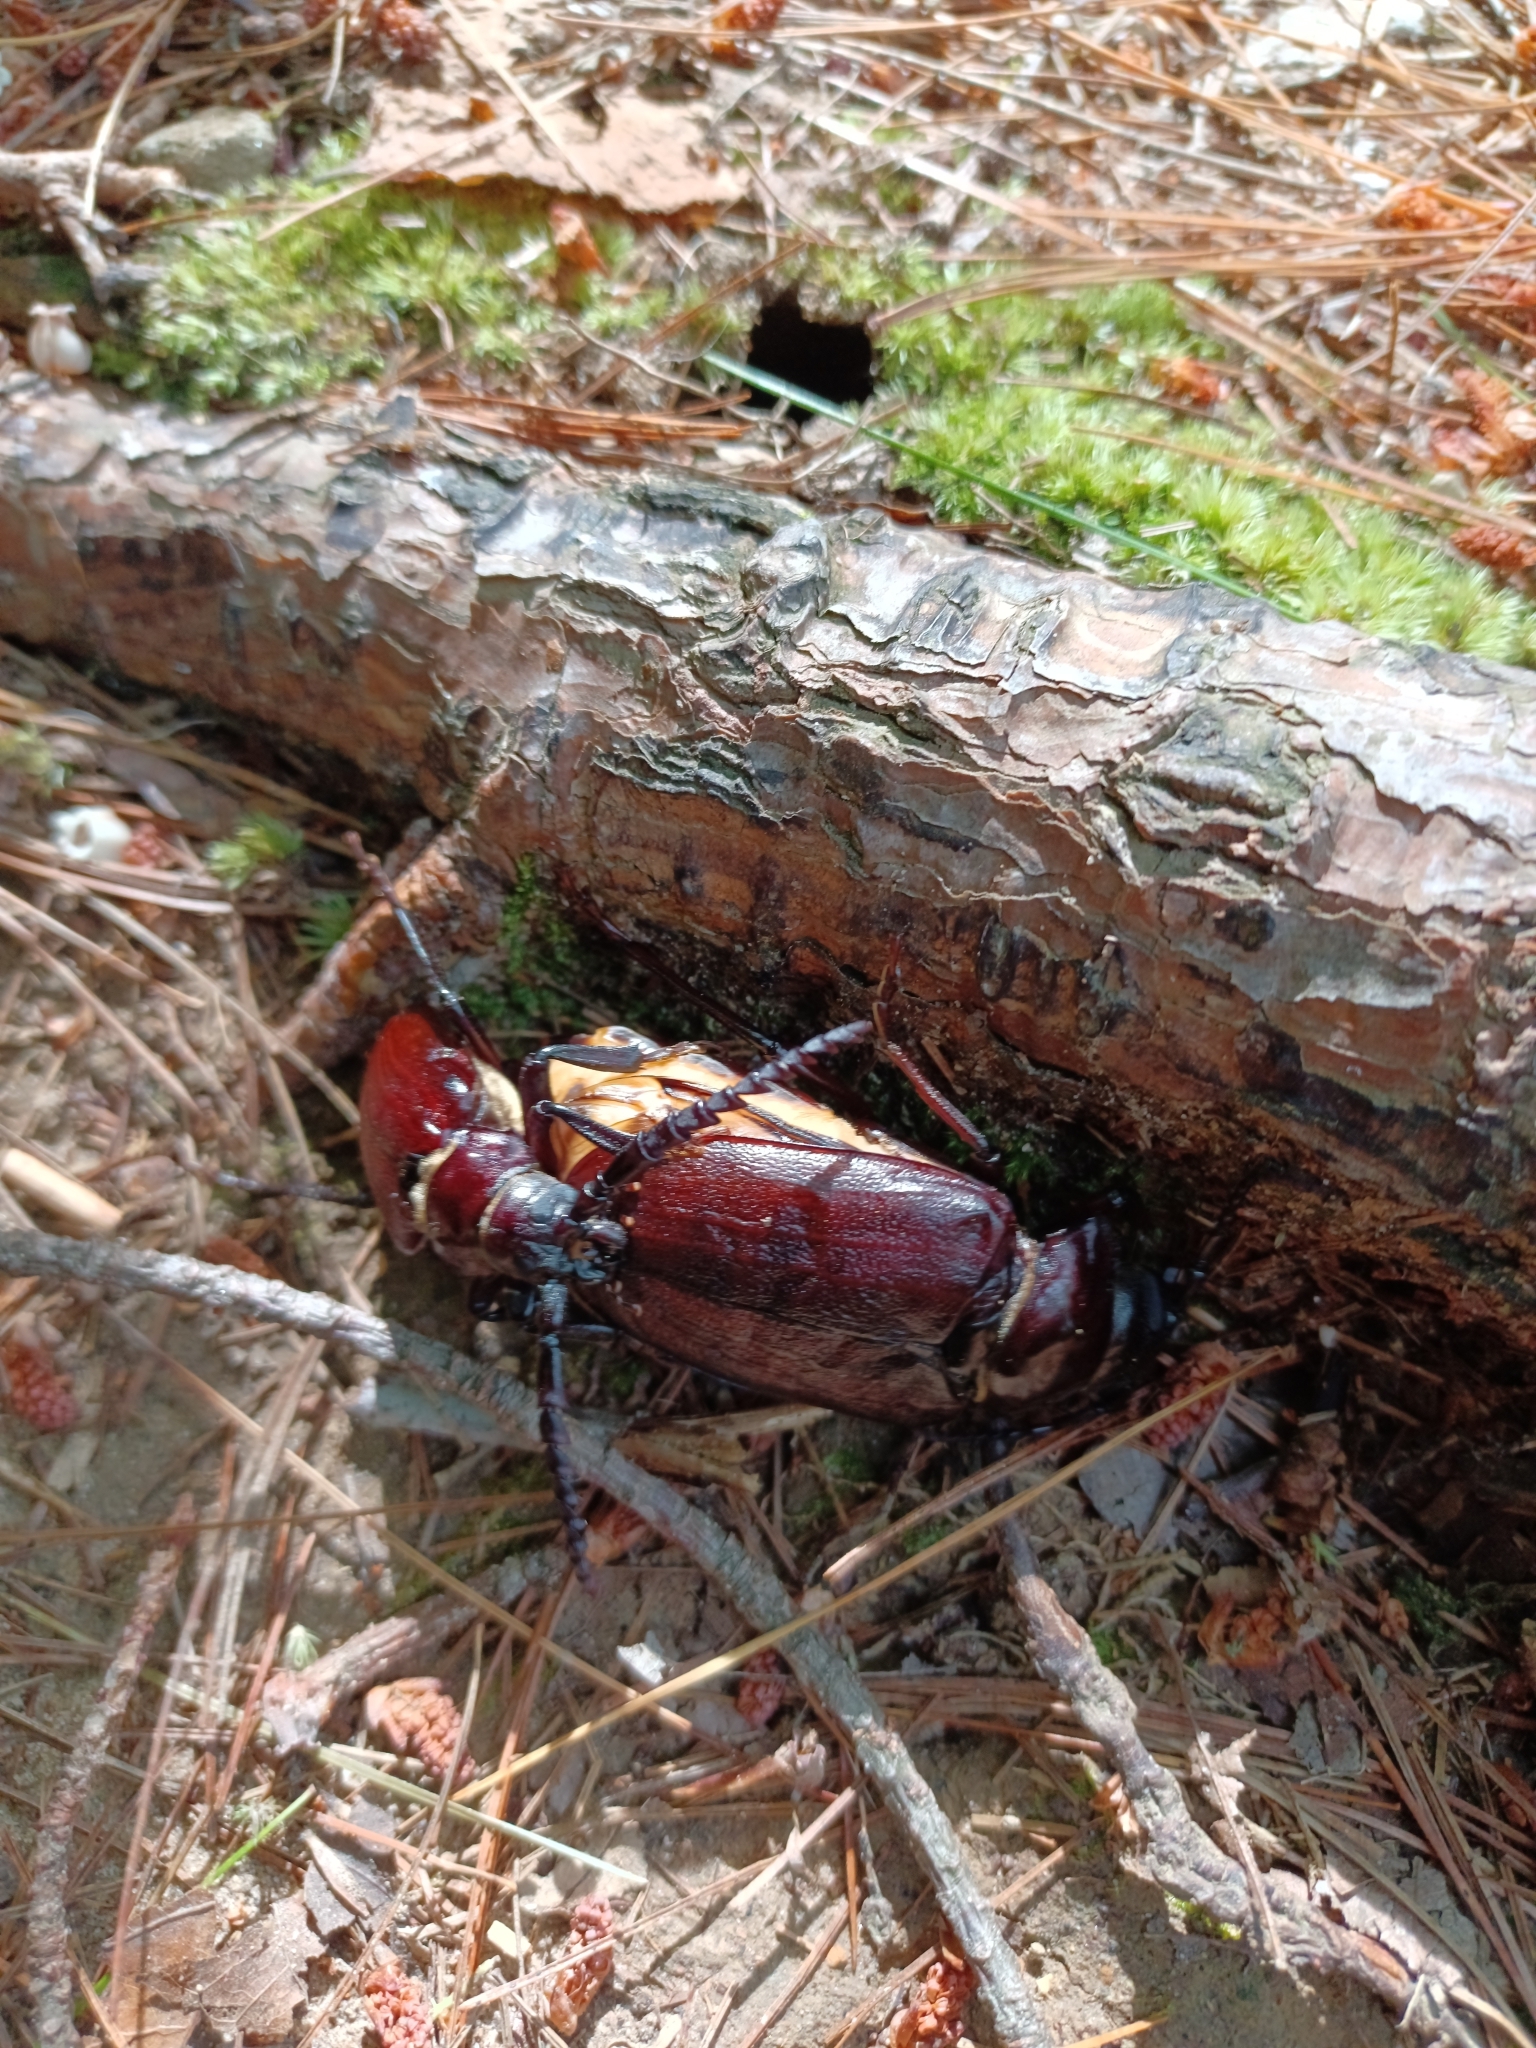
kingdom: Animalia
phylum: Arthropoda
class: Insecta
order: Coleoptera
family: Cerambycidae
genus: Prionus
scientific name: Prionus pocularis
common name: Tooth-necked longhorn beetle
